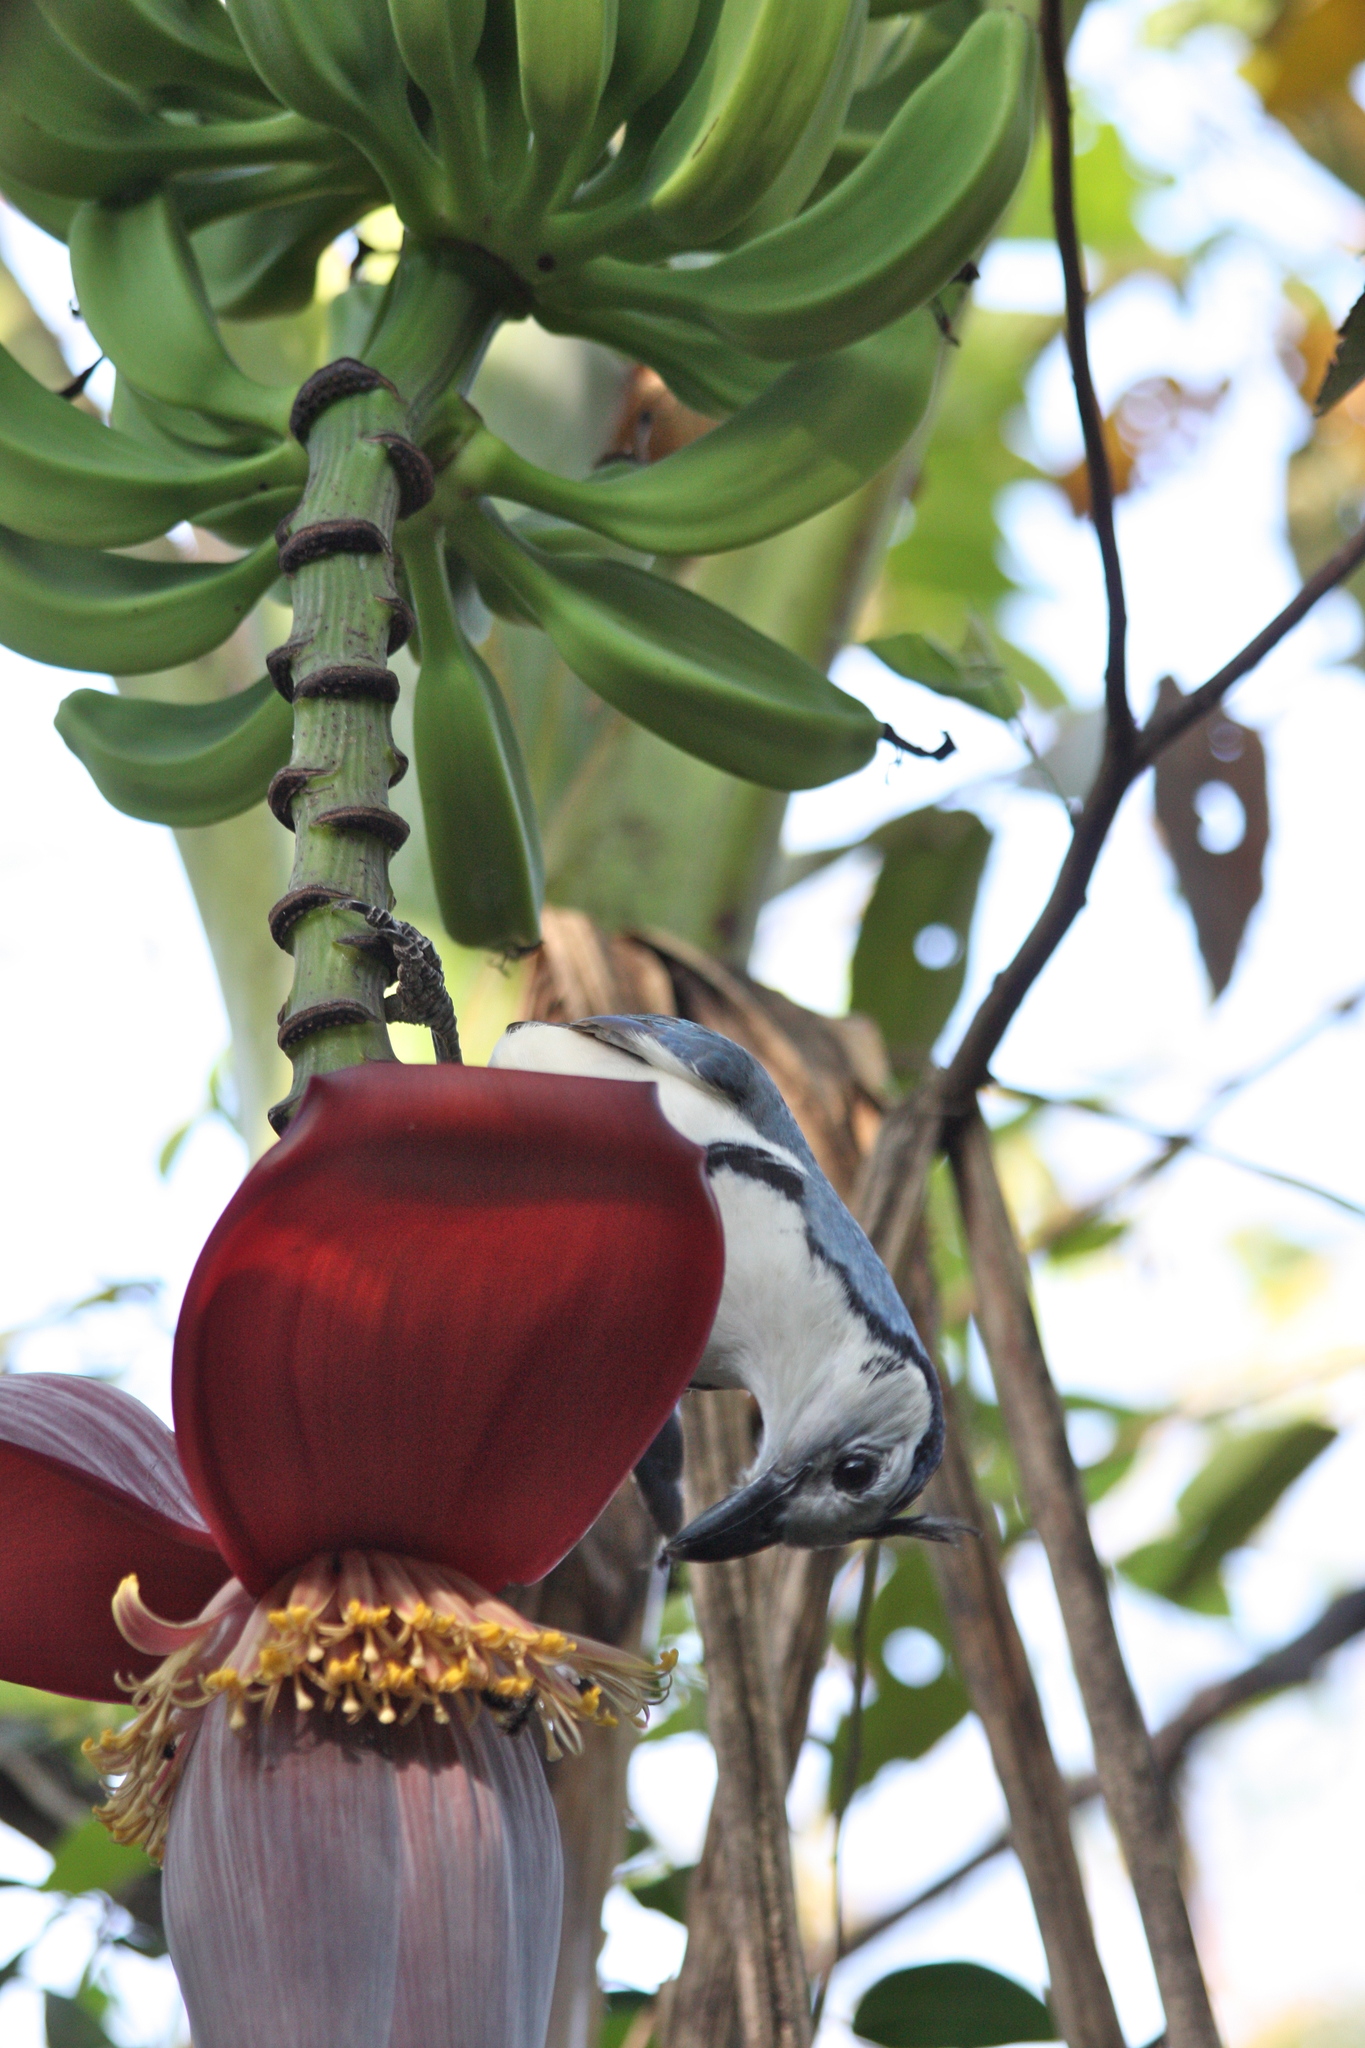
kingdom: Animalia
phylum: Chordata
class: Aves
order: Passeriformes
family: Corvidae
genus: Calocitta
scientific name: Calocitta formosa
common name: White-throated magpie-jay
